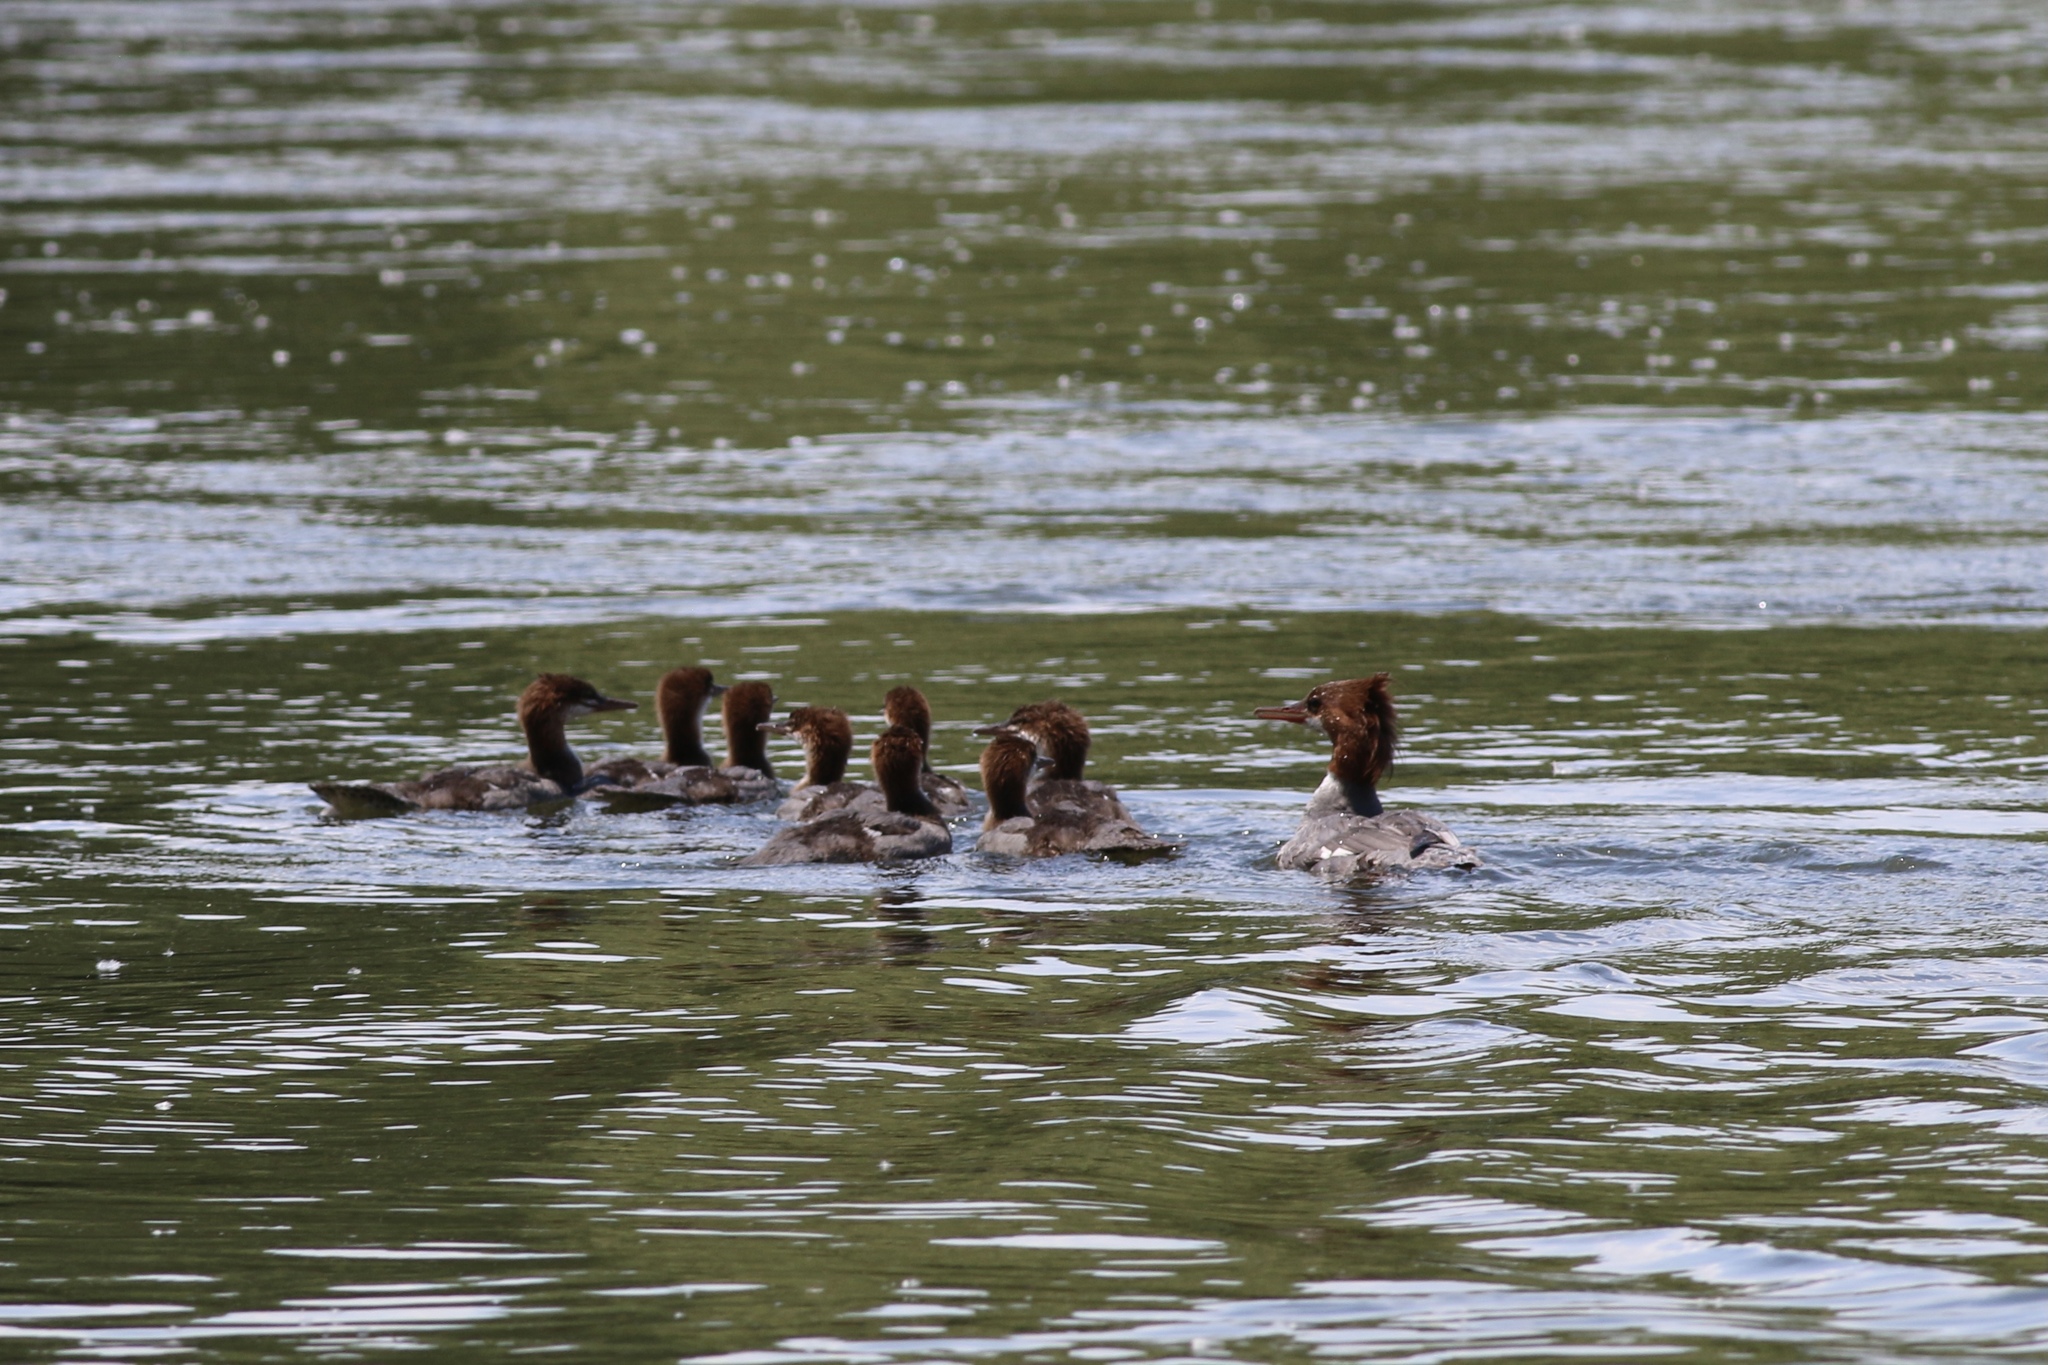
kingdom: Animalia
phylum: Chordata
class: Aves
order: Anseriformes
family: Anatidae
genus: Mergus
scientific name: Mergus merganser
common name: Common merganser
